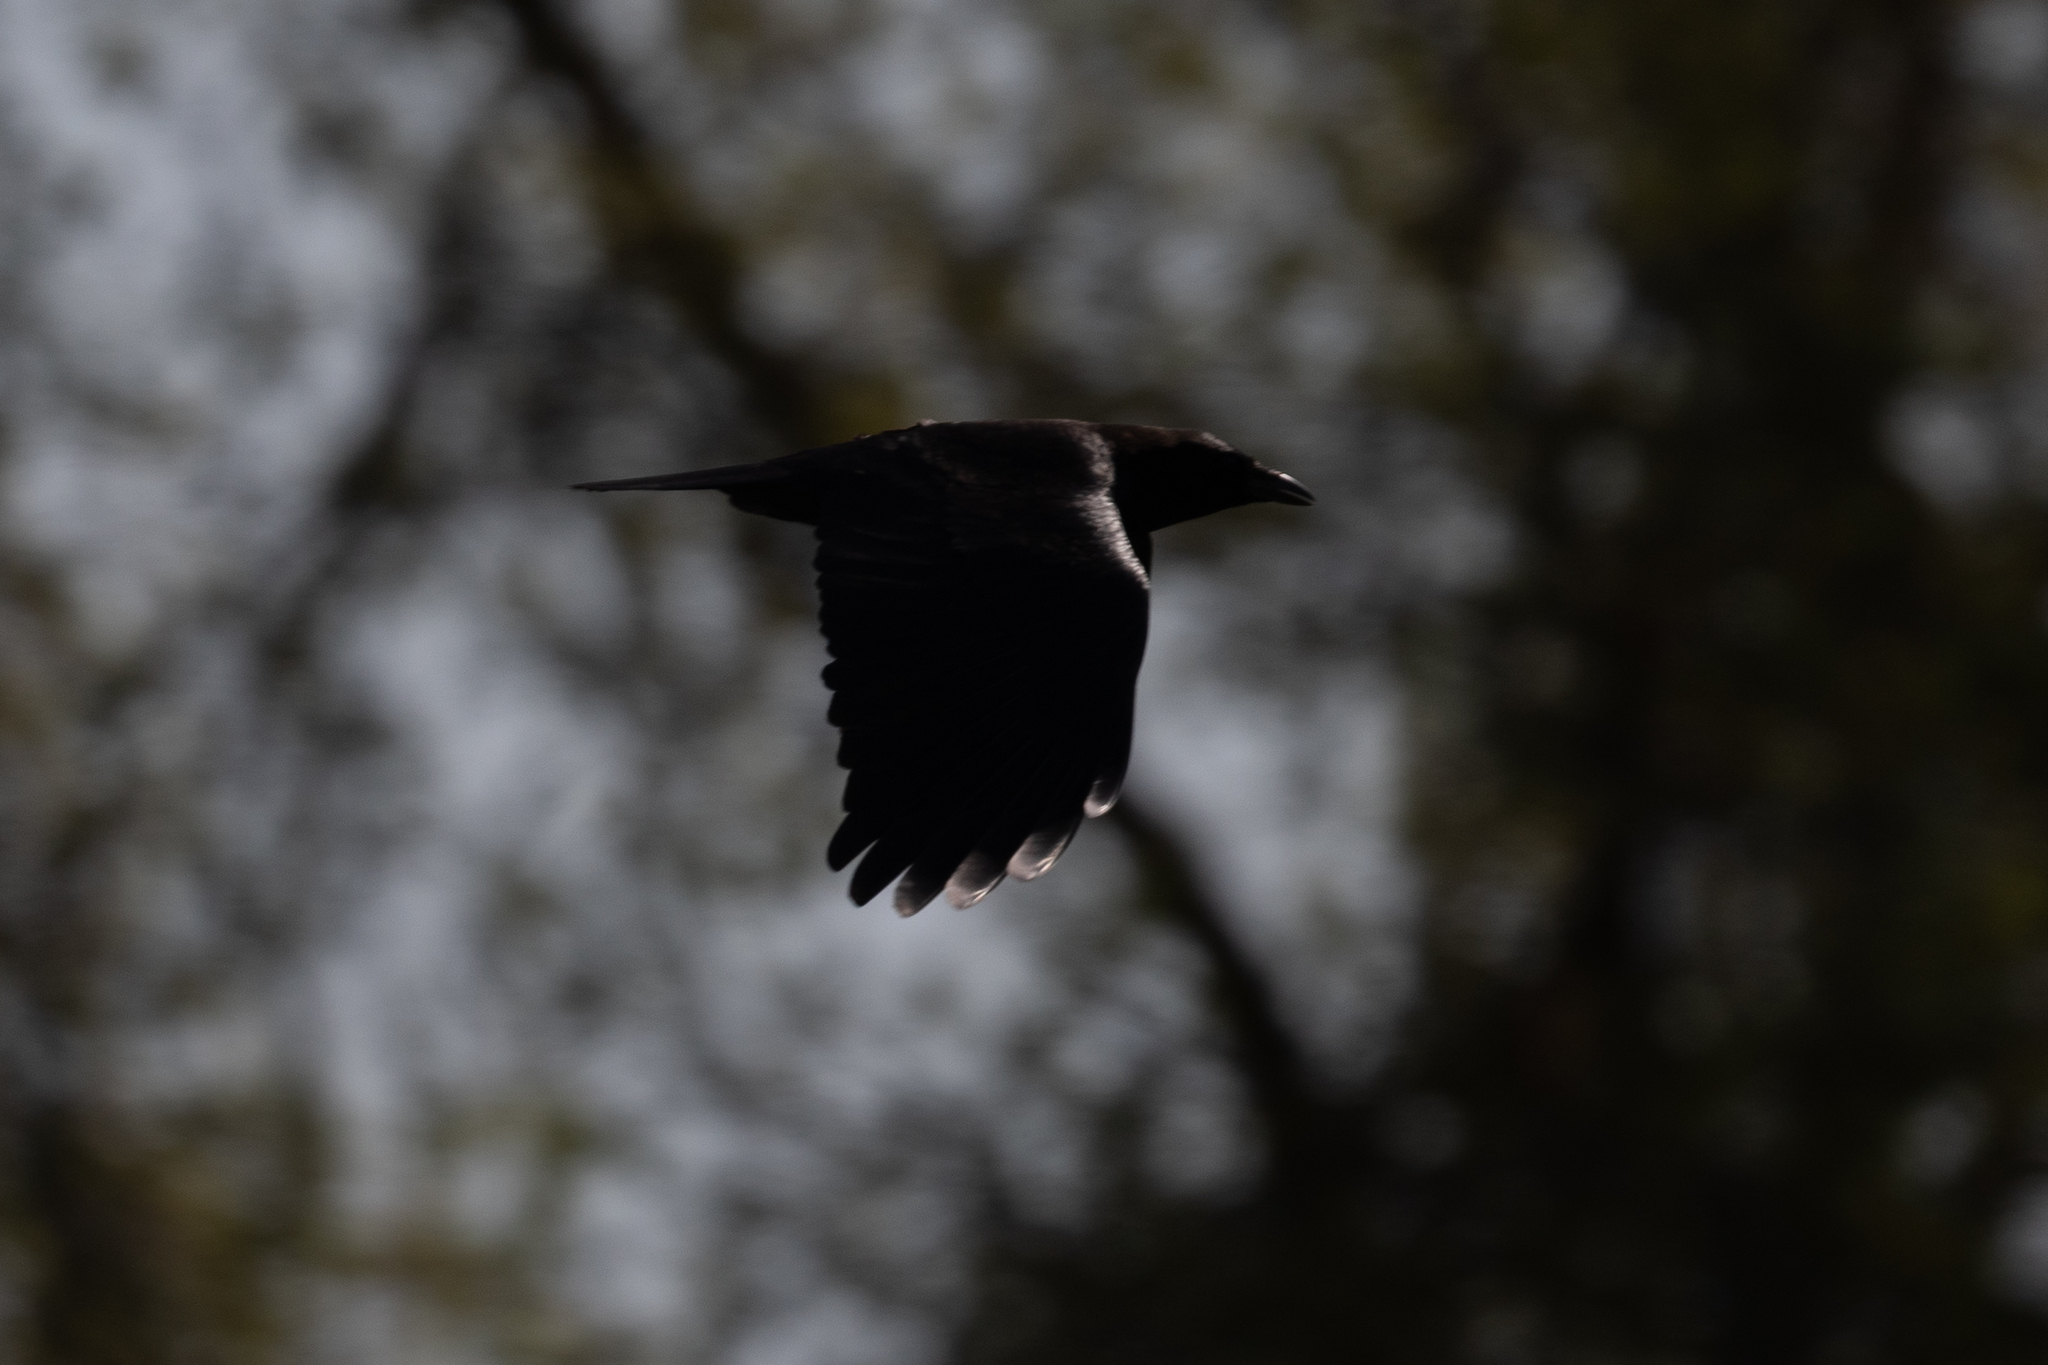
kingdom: Animalia
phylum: Chordata
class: Aves
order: Passeriformes
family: Corvidae
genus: Corvus
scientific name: Corvus corax
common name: Common raven
